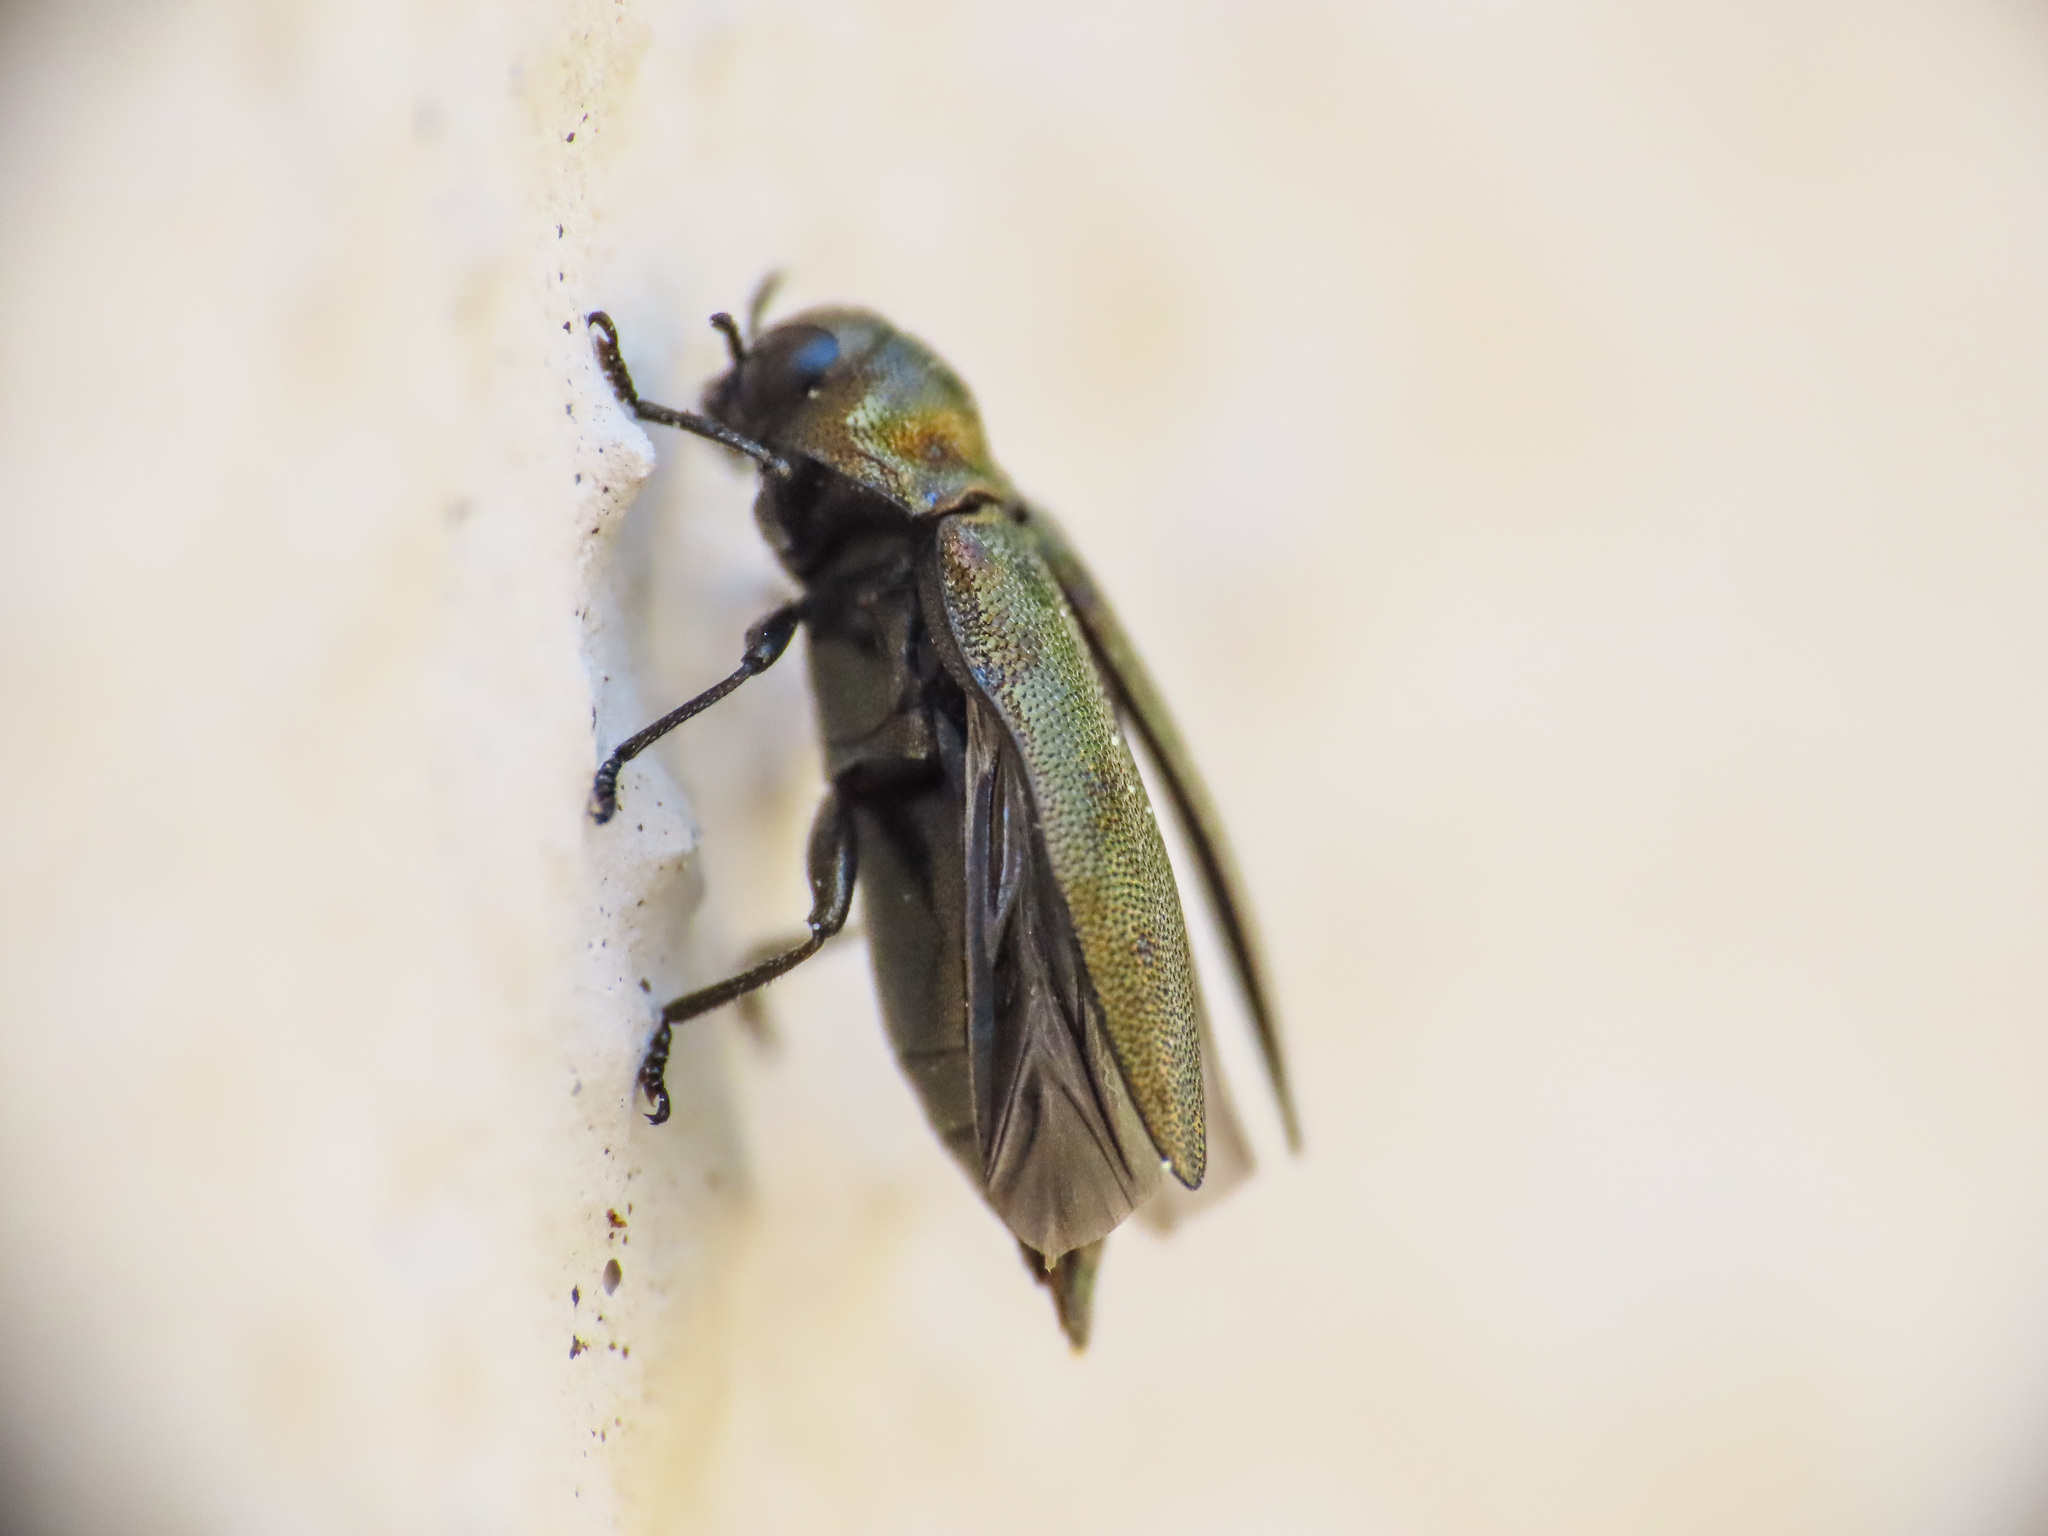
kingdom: Animalia
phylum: Arthropoda
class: Insecta
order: Coleoptera
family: Buprestidae
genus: Coraebus
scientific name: Coraebus elatus
